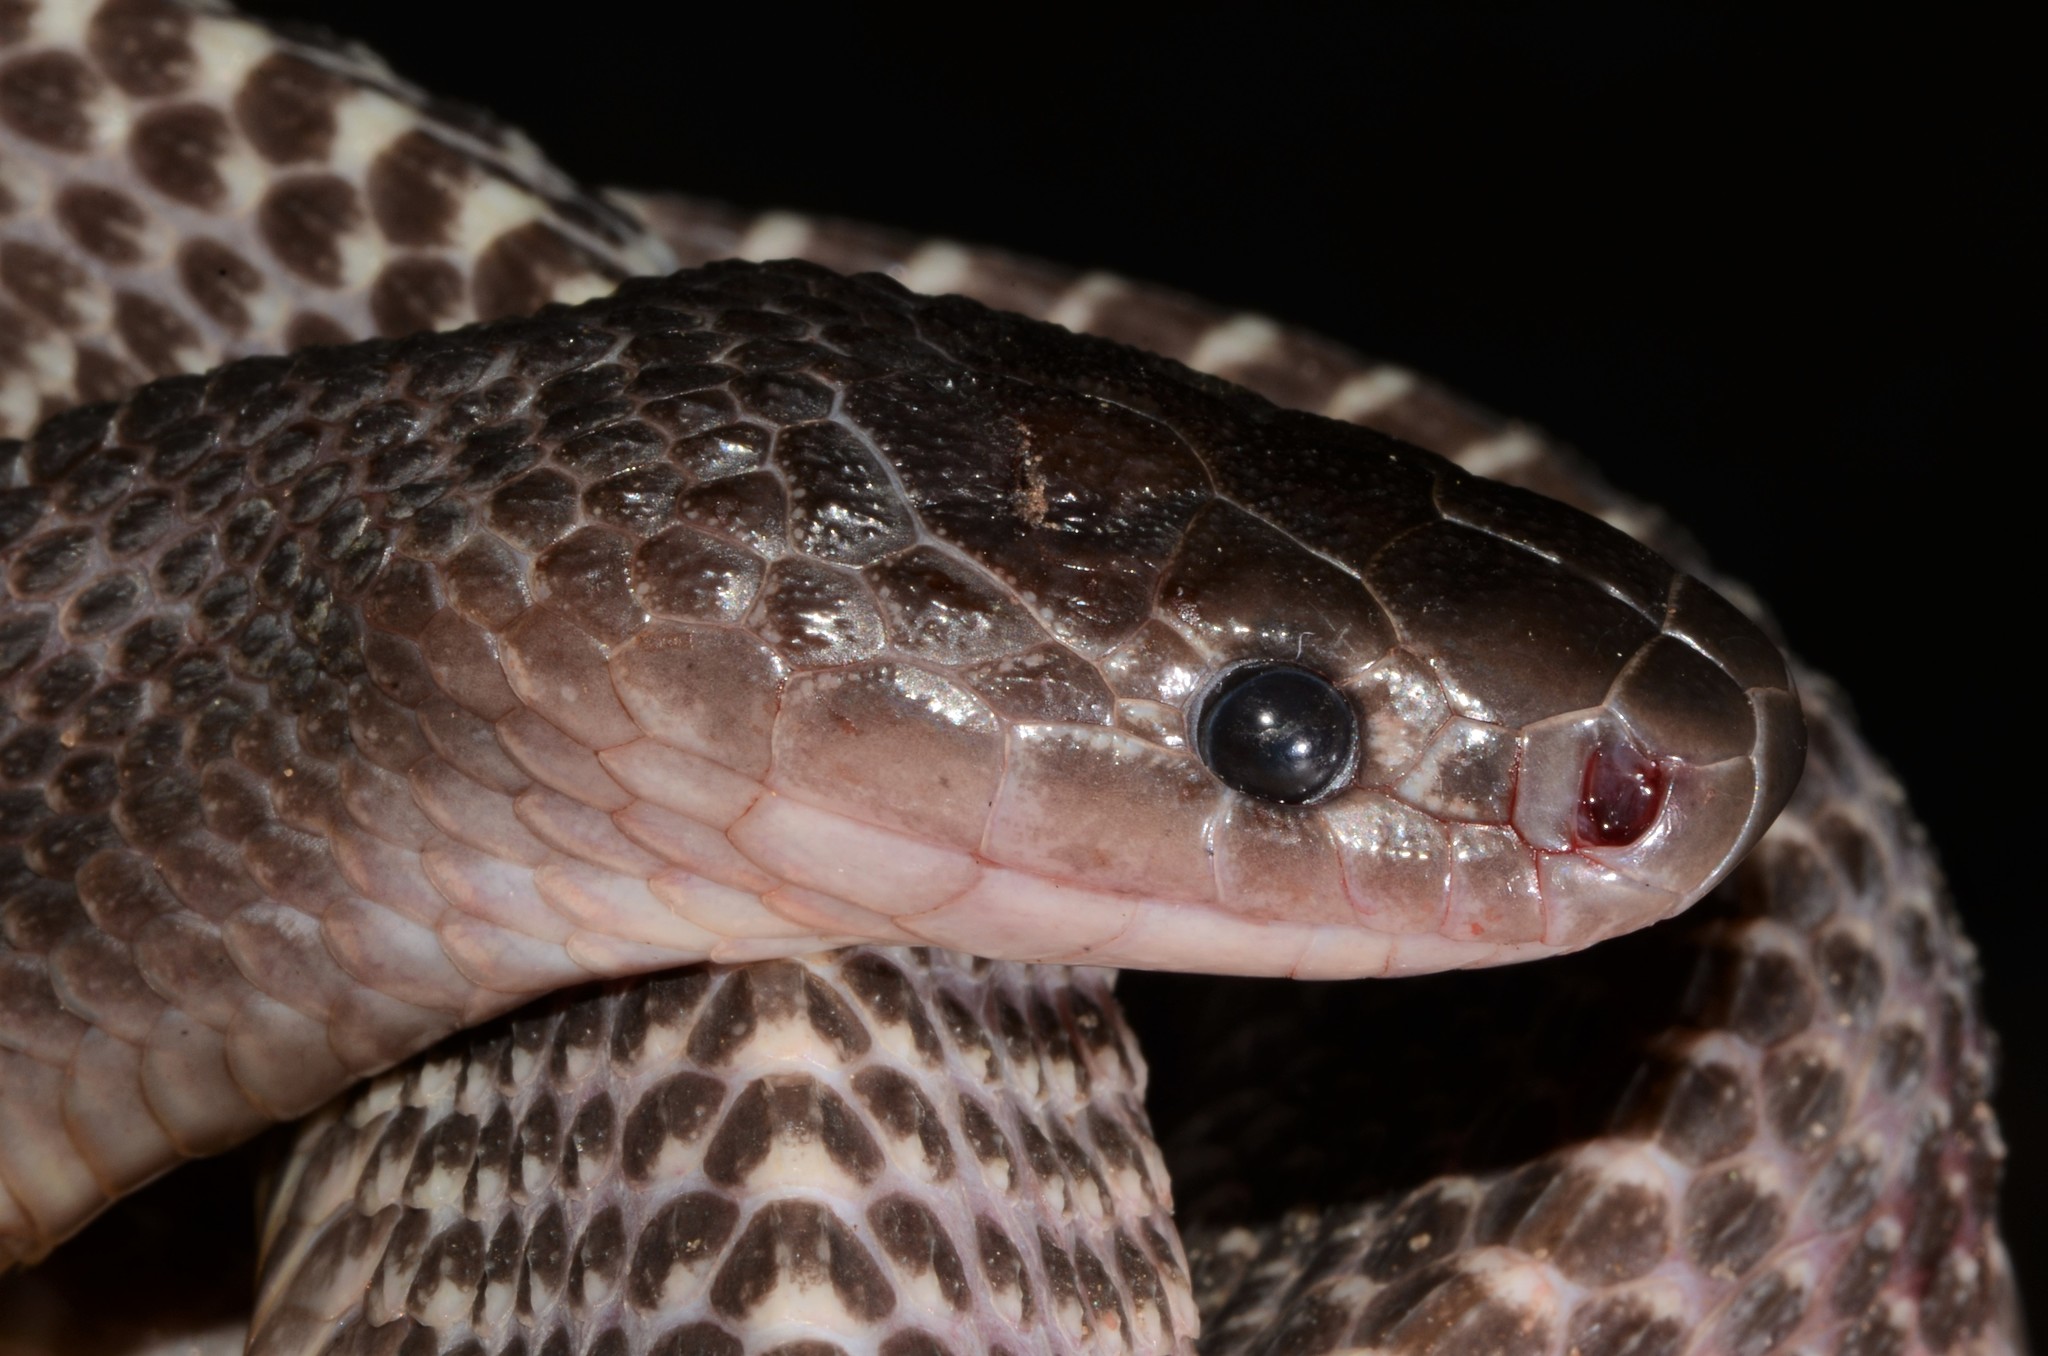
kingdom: Animalia
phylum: Chordata
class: Squamata
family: Lamprophiidae
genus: Limaformosa
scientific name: Limaformosa chanleri
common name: Unicolor file snake
